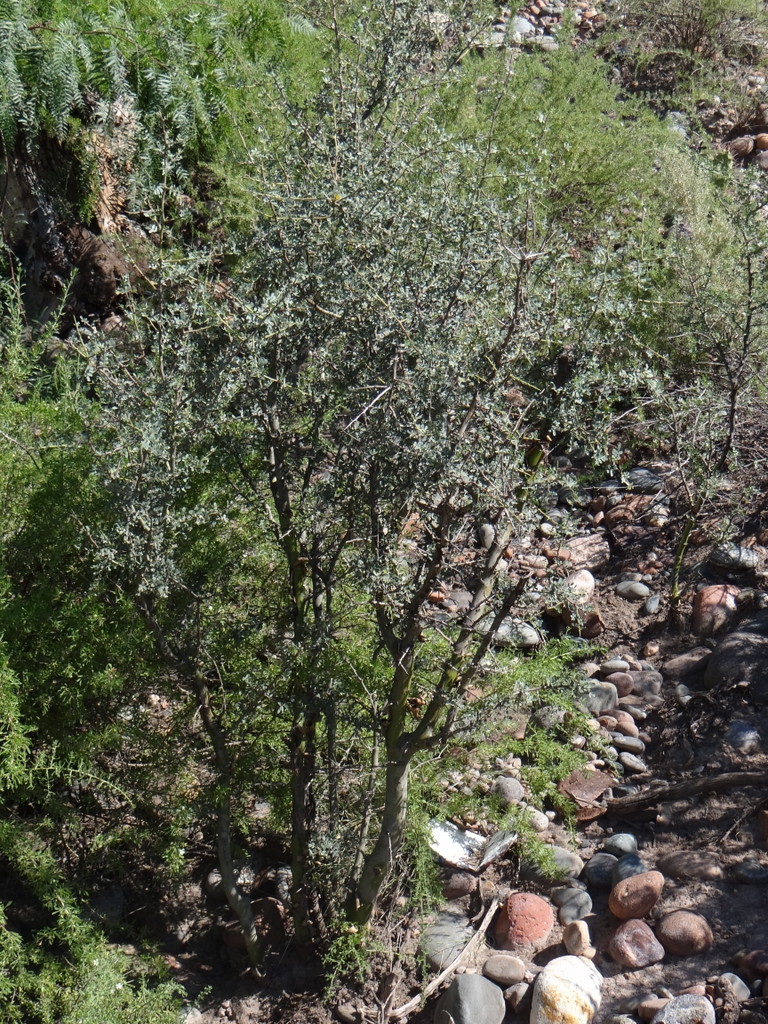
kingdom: Plantae
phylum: Tracheophyta
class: Magnoliopsida
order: Fabales
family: Fabaceae
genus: Geoffroea
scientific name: Geoffroea decorticans
